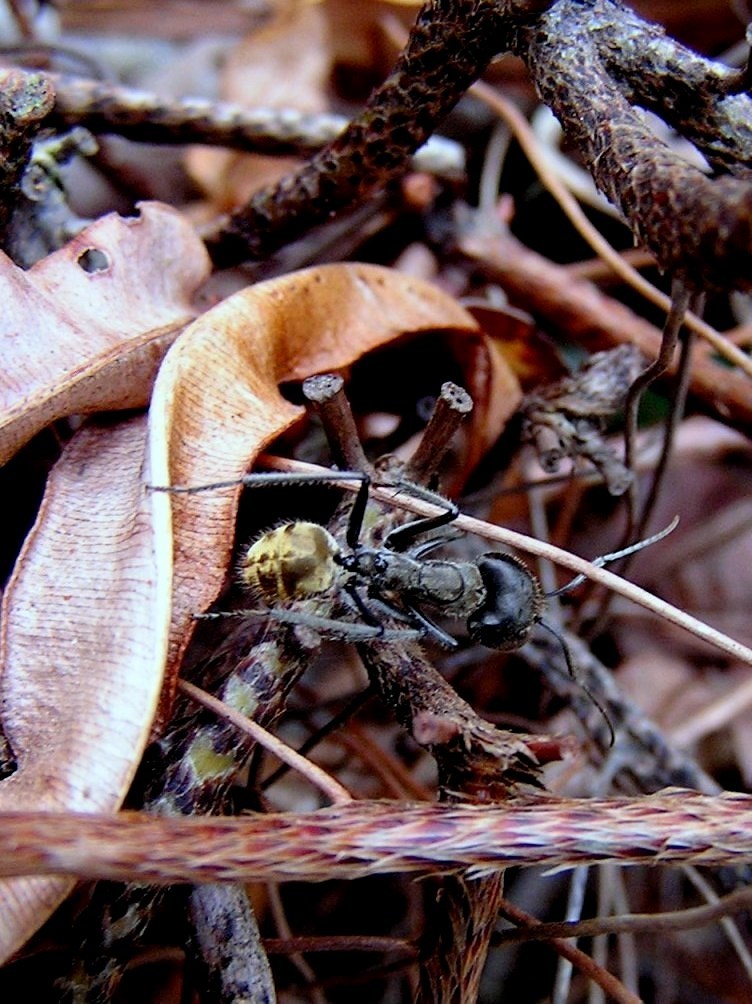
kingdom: Animalia
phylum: Arthropoda
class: Insecta
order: Hymenoptera
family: Formicidae
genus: Camponotus
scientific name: Camponotus auriventris
